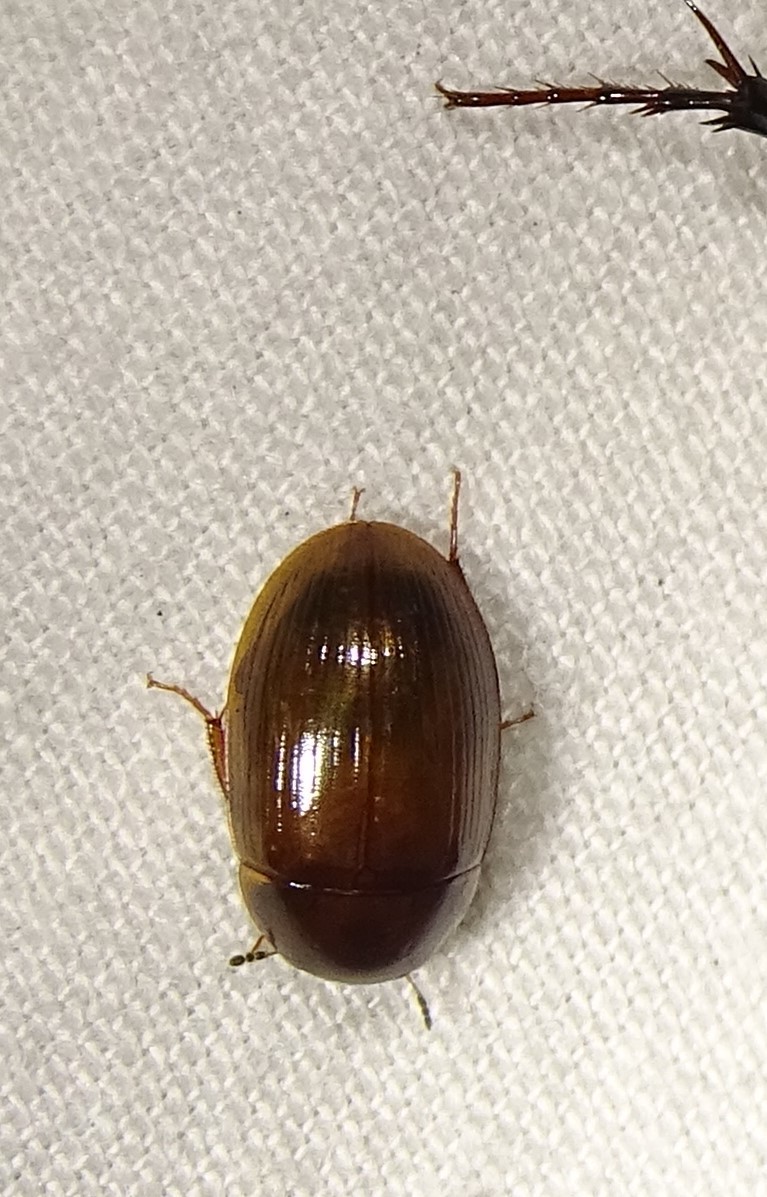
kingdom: Animalia
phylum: Arthropoda
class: Insecta
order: Coleoptera
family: Hydrophilidae
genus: Cymbiodyta
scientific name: Cymbiodyta bifida
